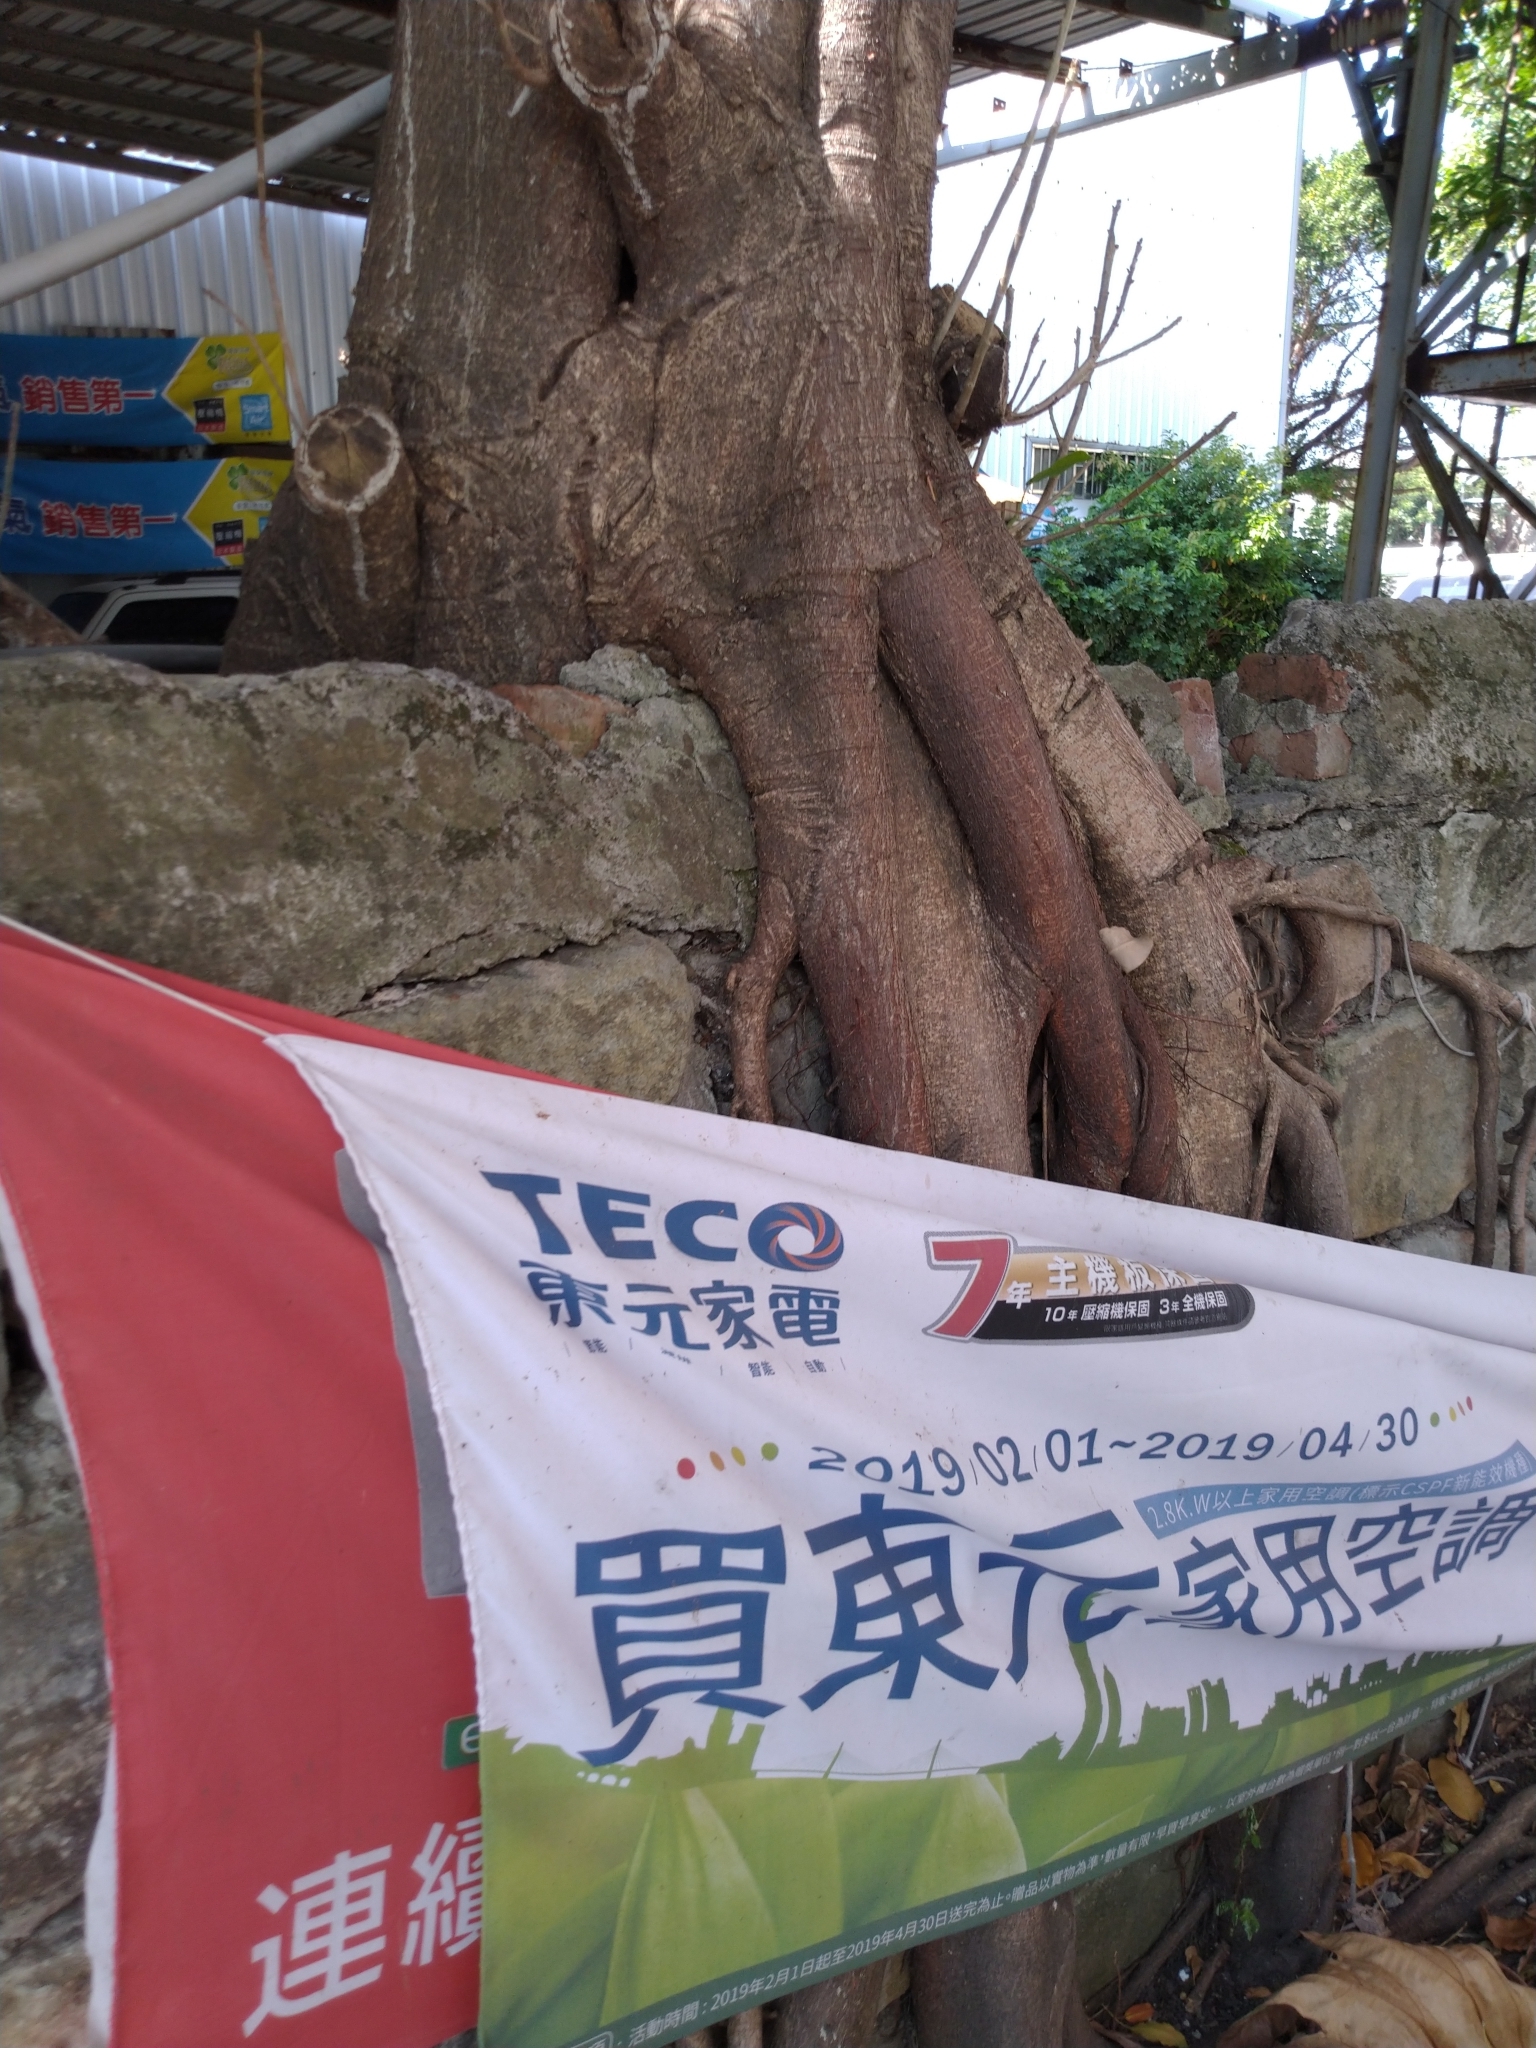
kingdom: Plantae
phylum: Tracheophyta
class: Magnoliopsida
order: Rosales
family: Moraceae
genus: Ficus
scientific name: Ficus subpisocarpa
